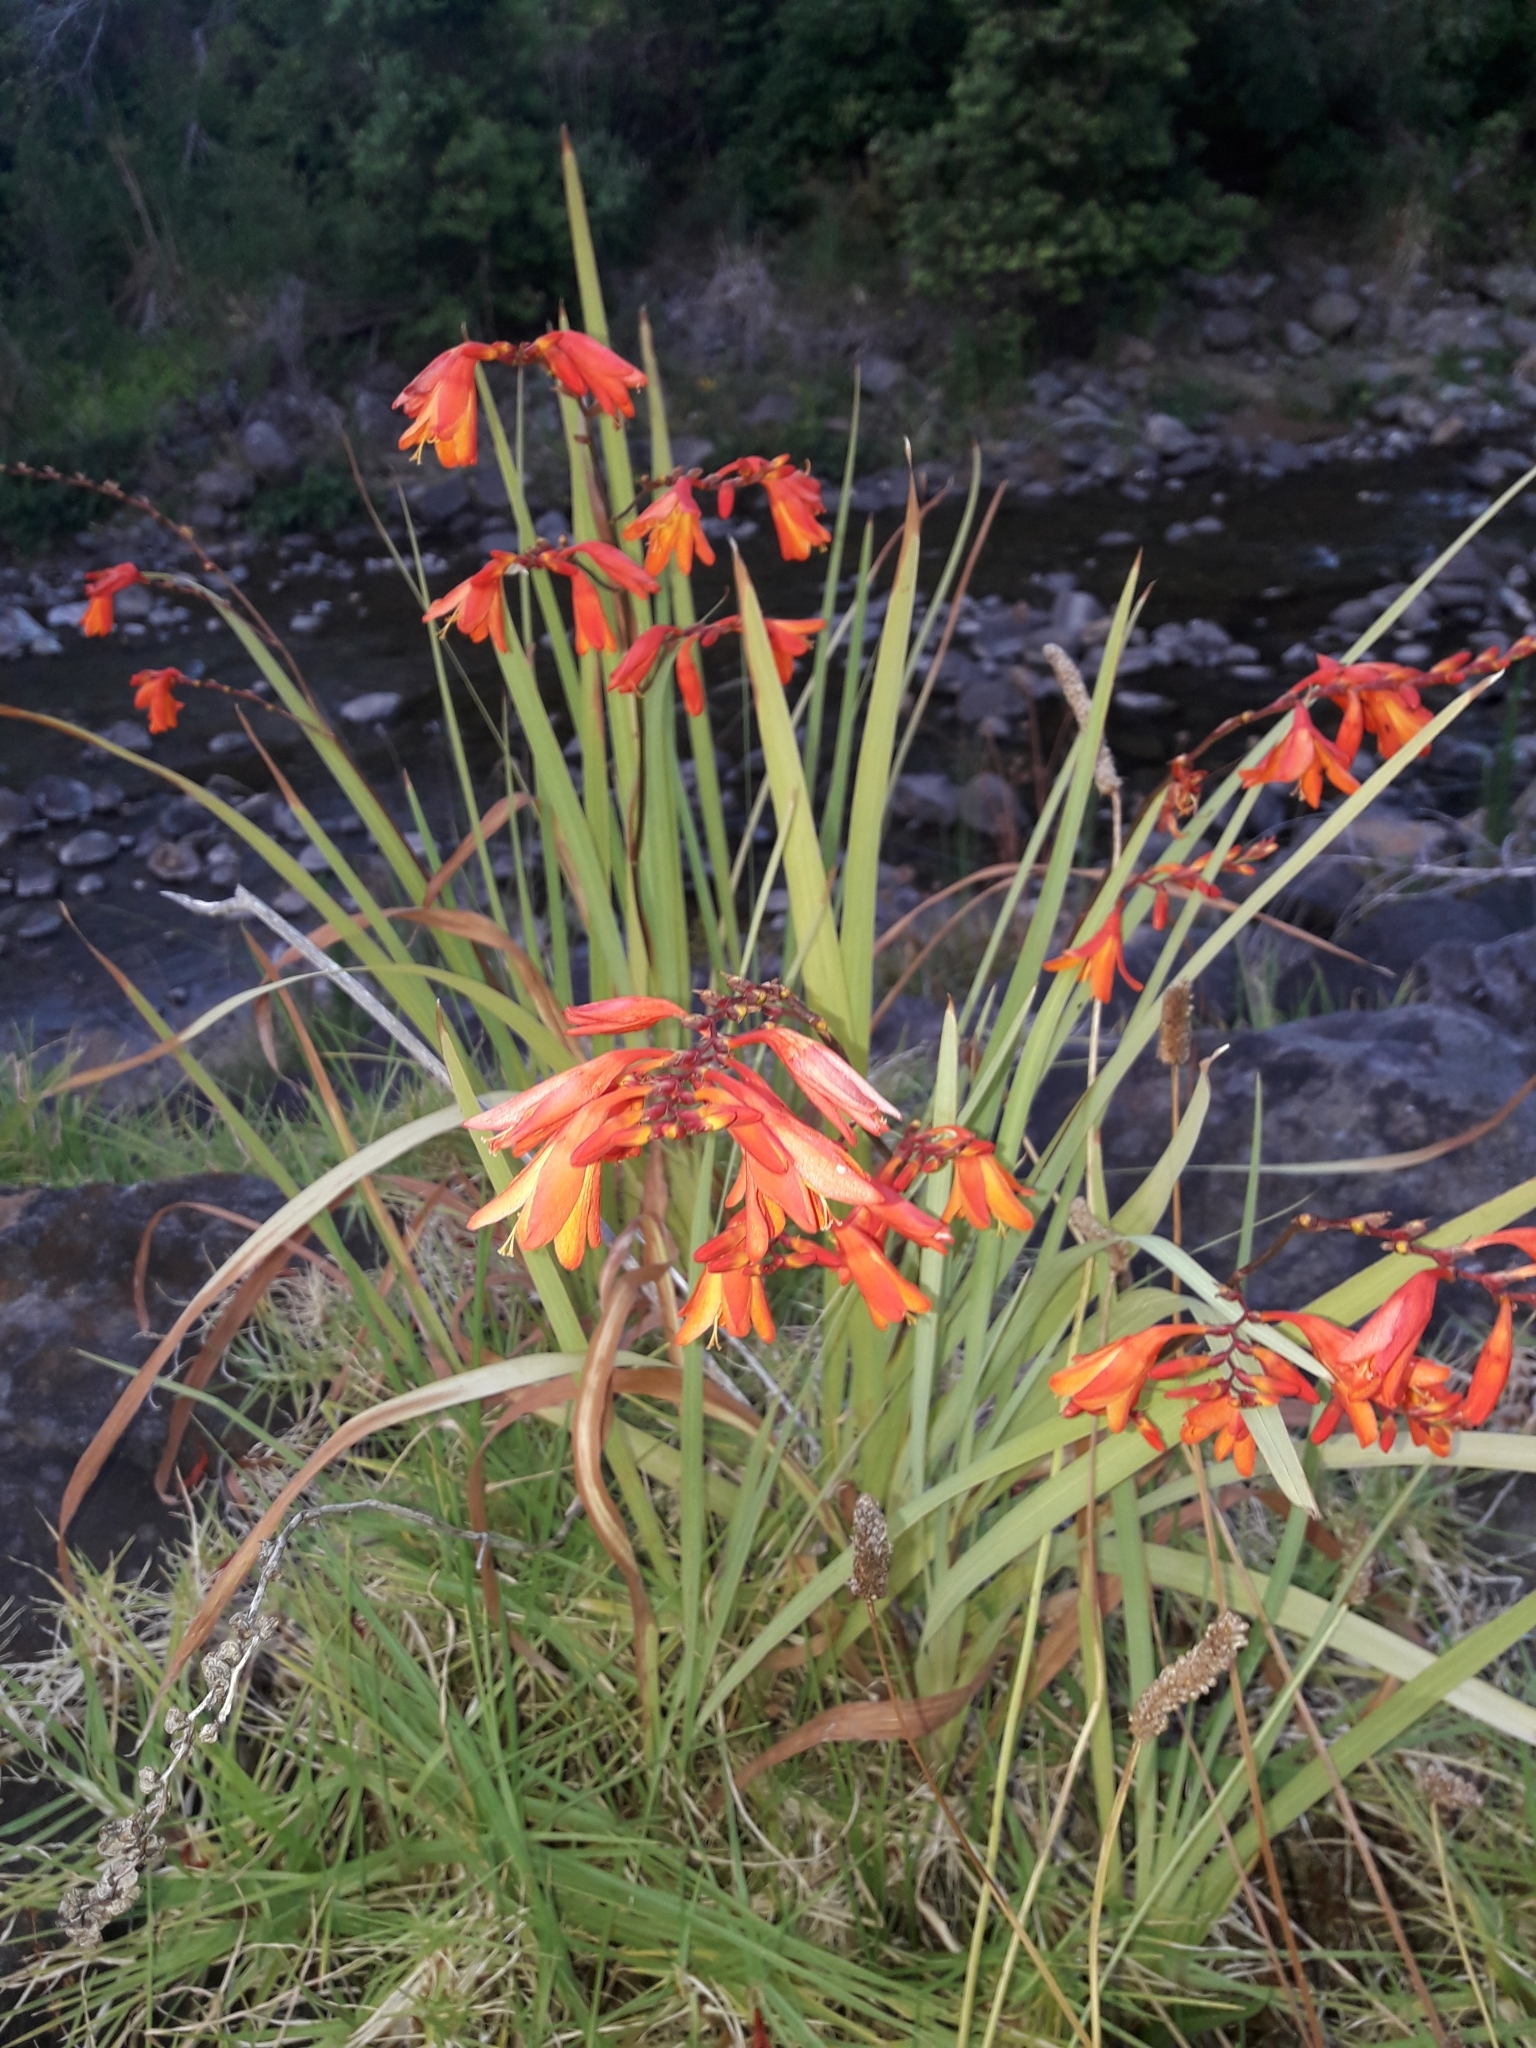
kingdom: Plantae
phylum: Tracheophyta
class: Liliopsida
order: Asparagales
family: Iridaceae
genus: Crocosmia
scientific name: Crocosmia crocosmiiflora
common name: Montbretia
